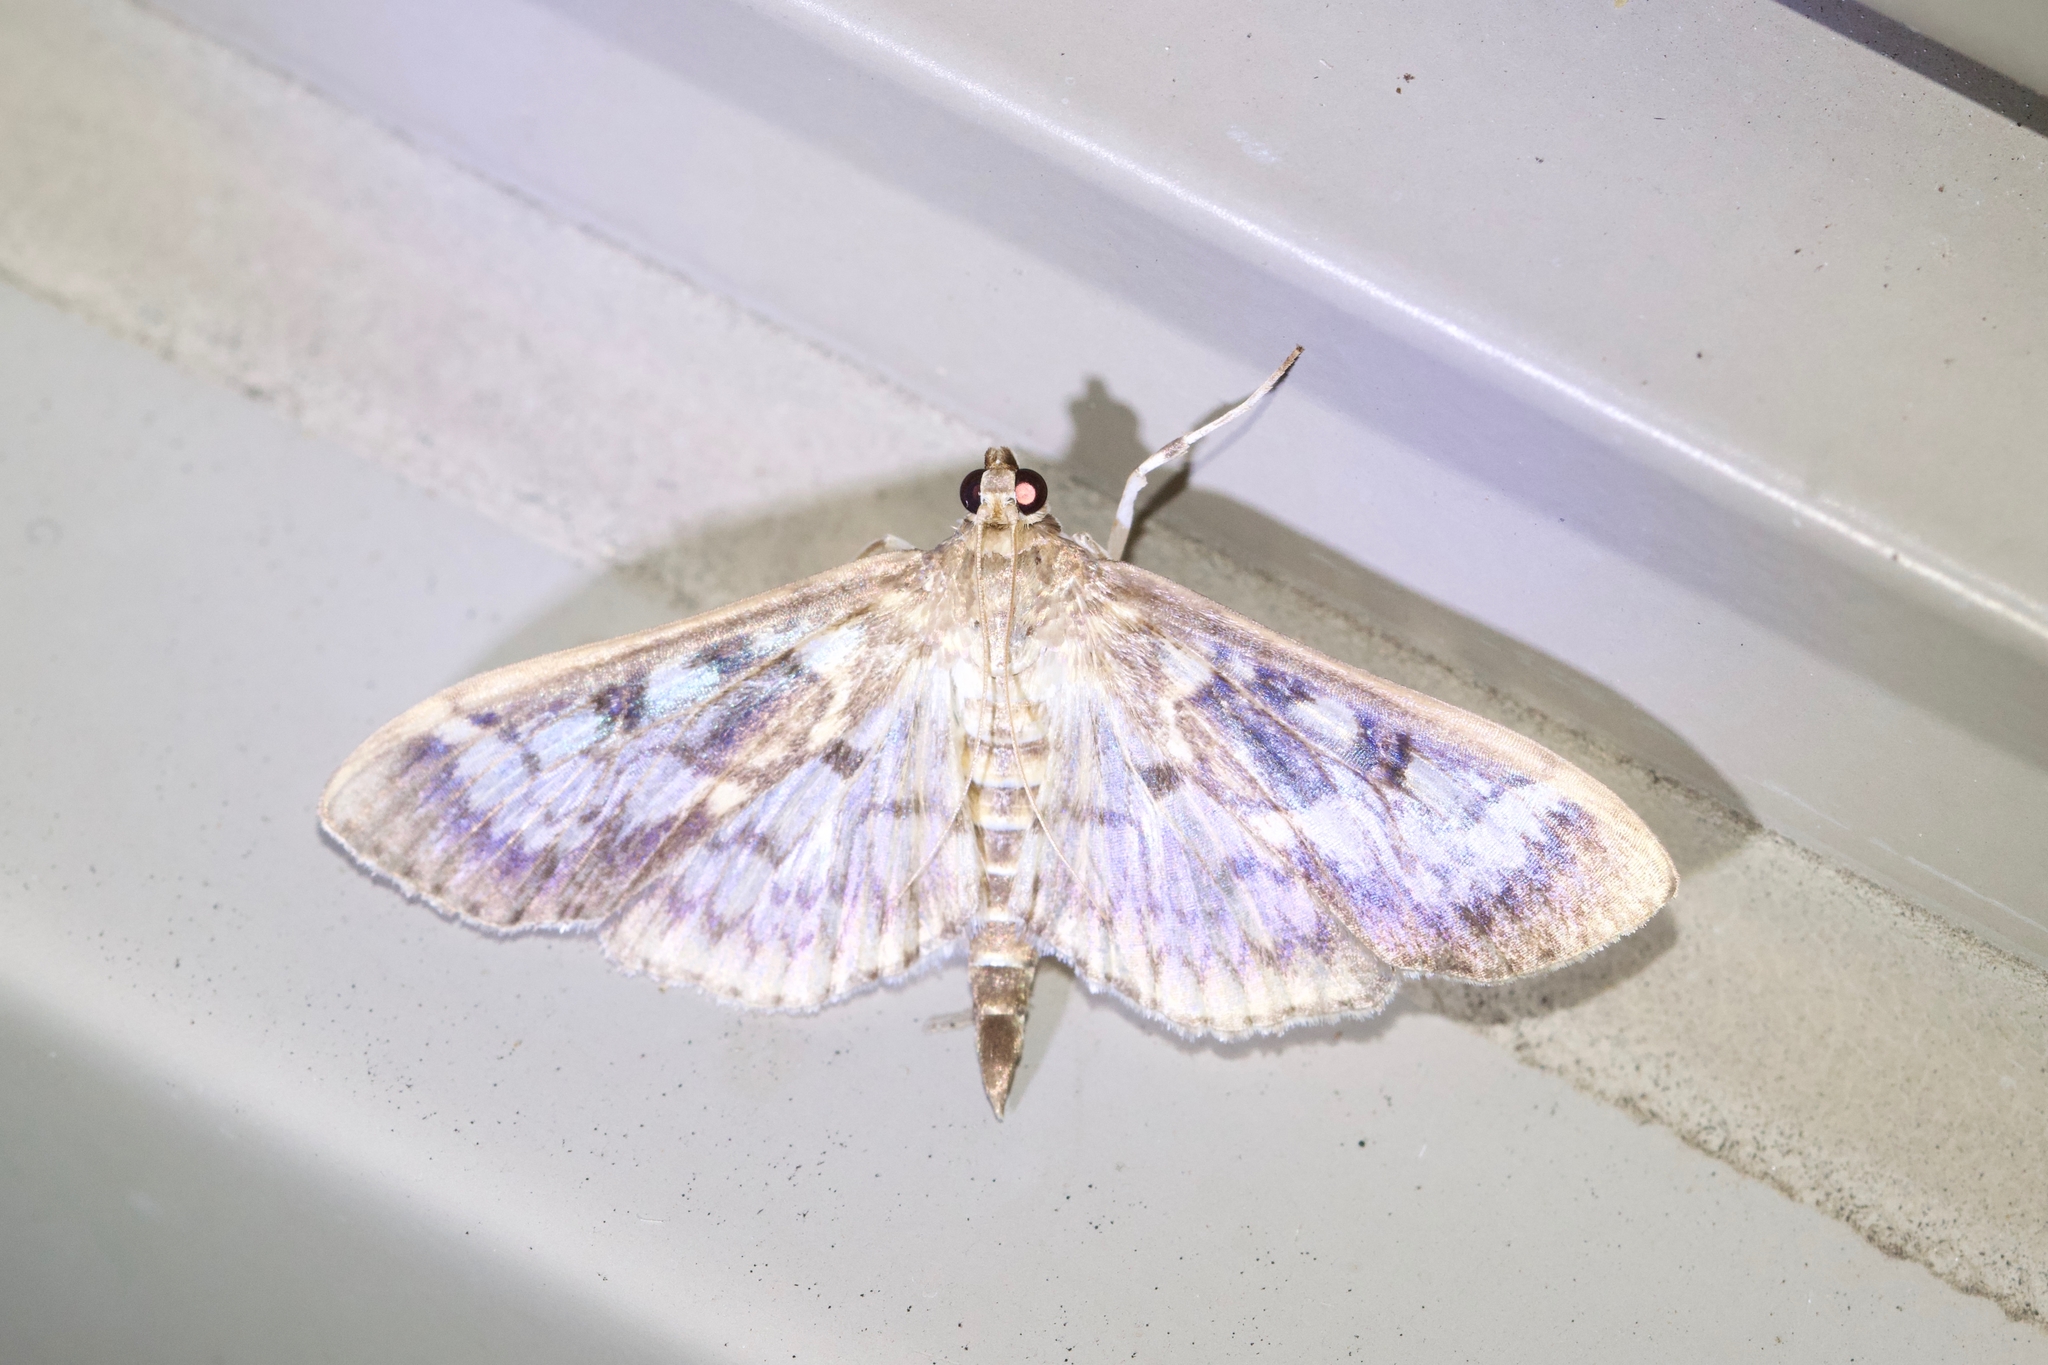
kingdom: Animalia
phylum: Arthropoda
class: Insecta
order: Lepidoptera
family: Crambidae
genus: Herpetogramma
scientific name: Herpetogramma thestealis
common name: Zigzag herpetogramma moth
